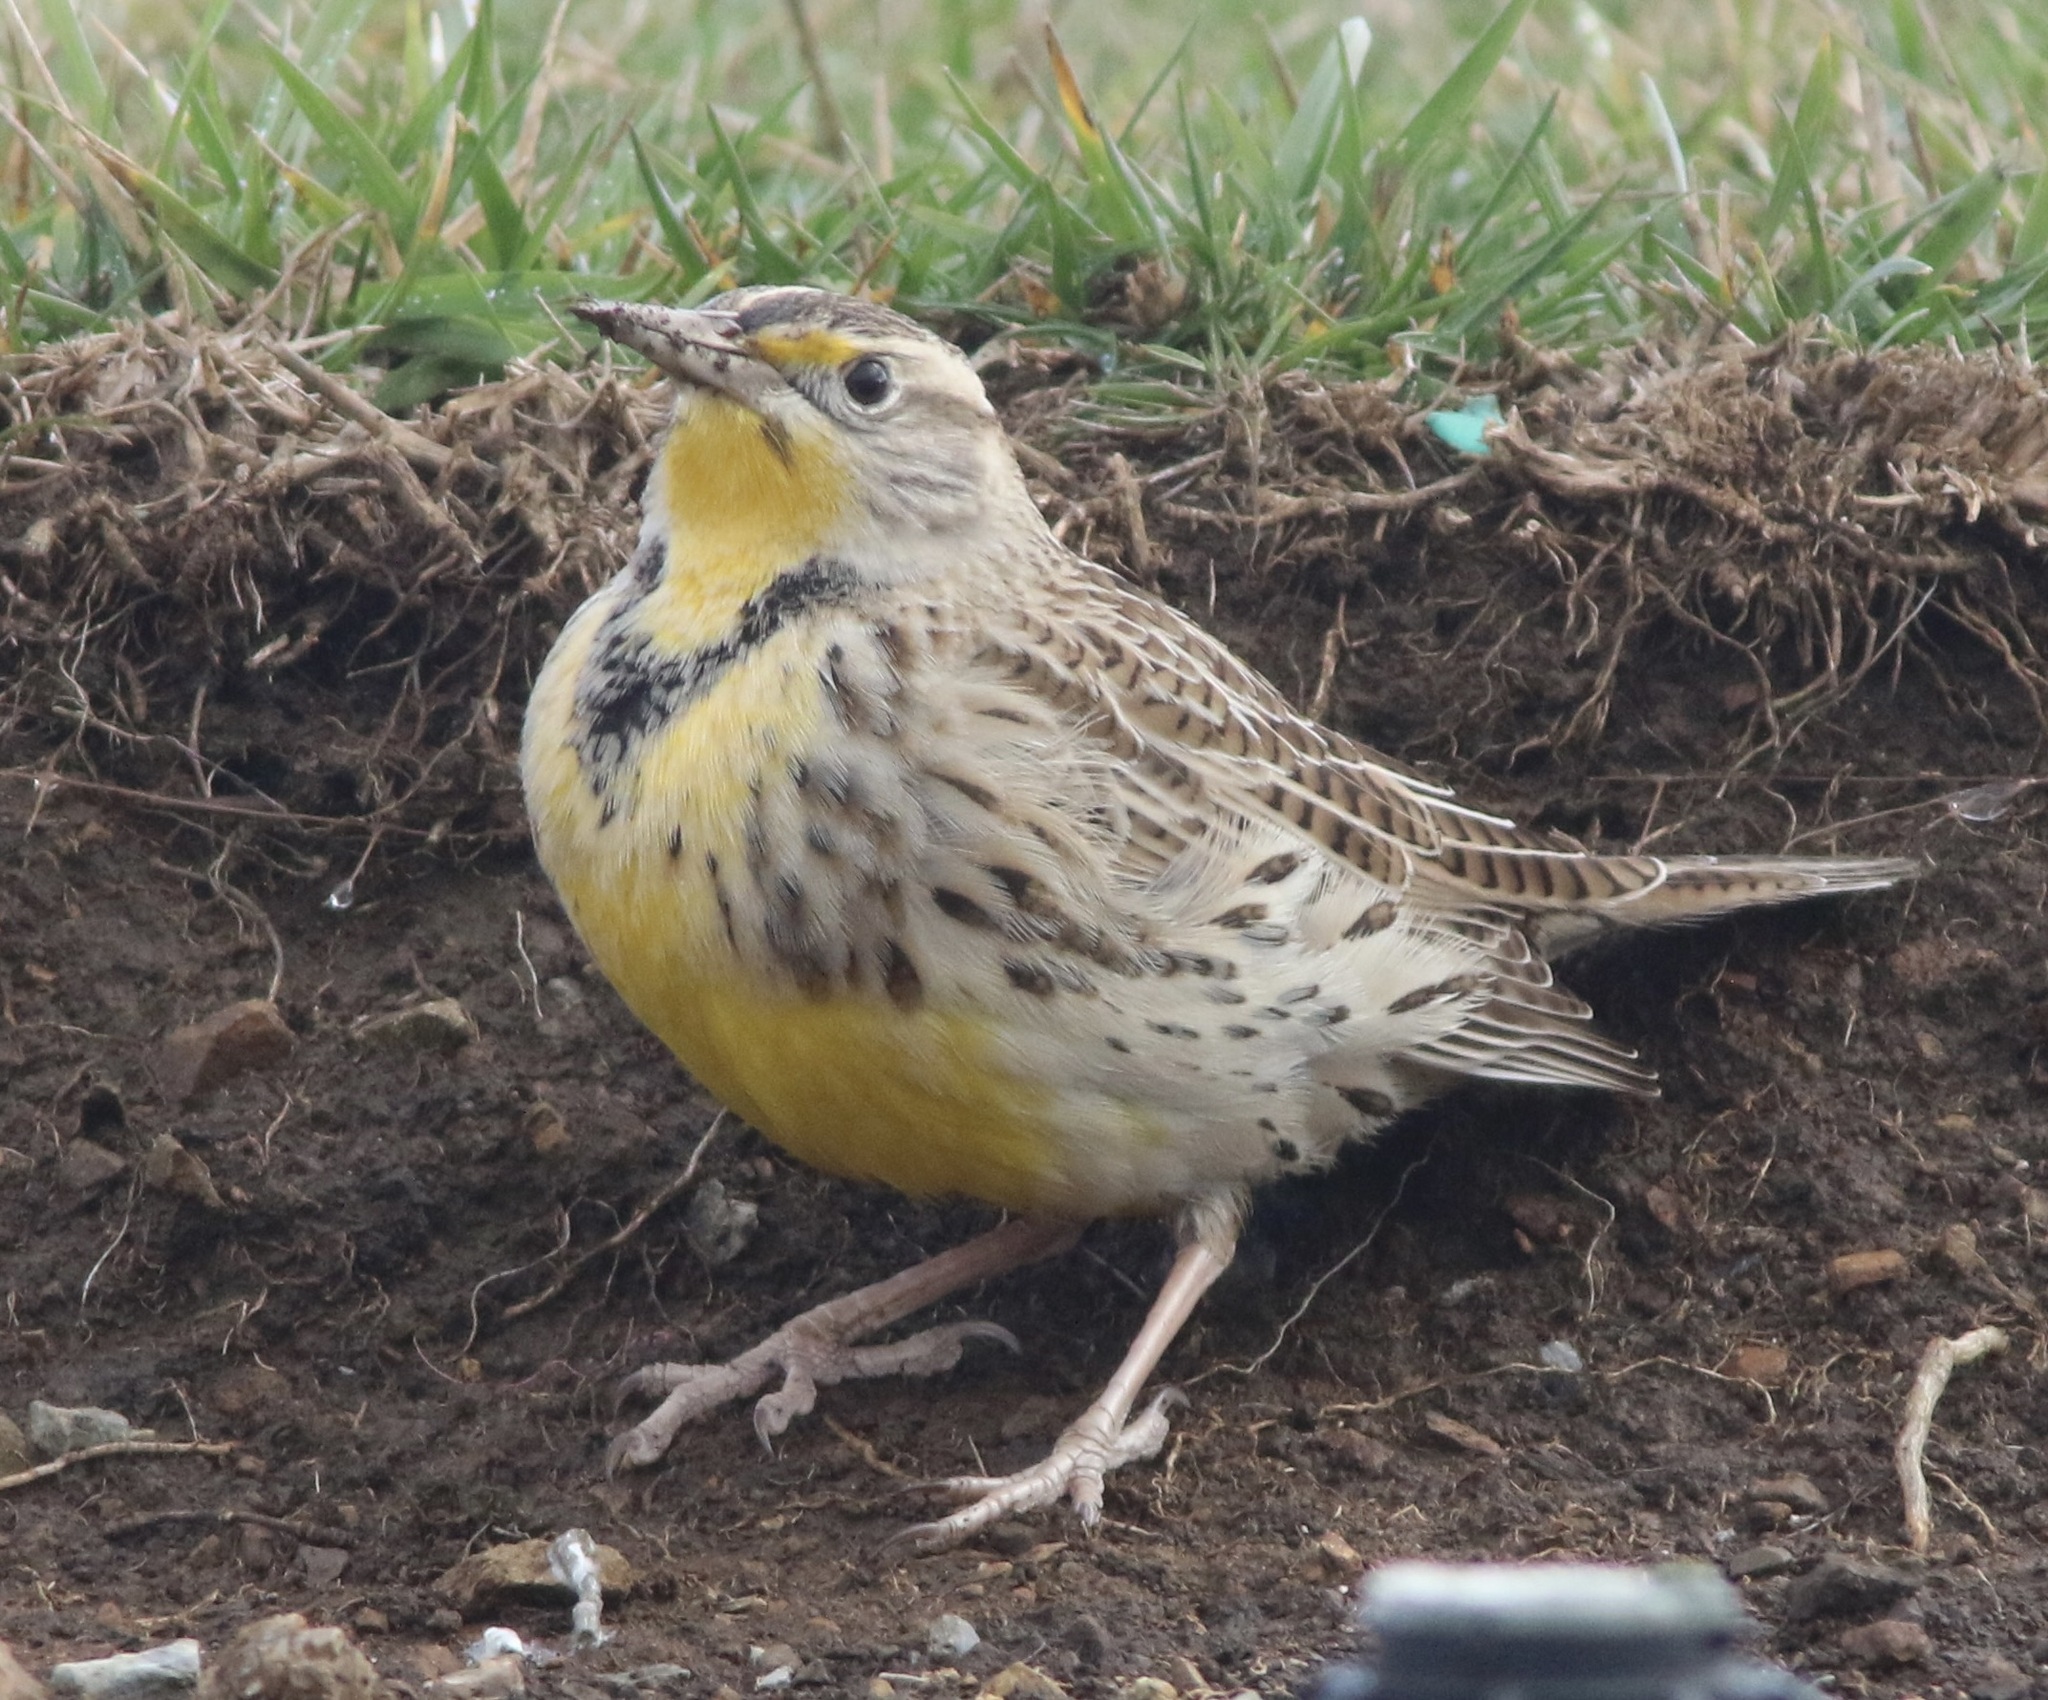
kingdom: Animalia
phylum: Chordata
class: Aves
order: Passeriformes
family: Icteridae
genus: Sturnella
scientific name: Sturnella neglecta
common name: Western meadowlark
